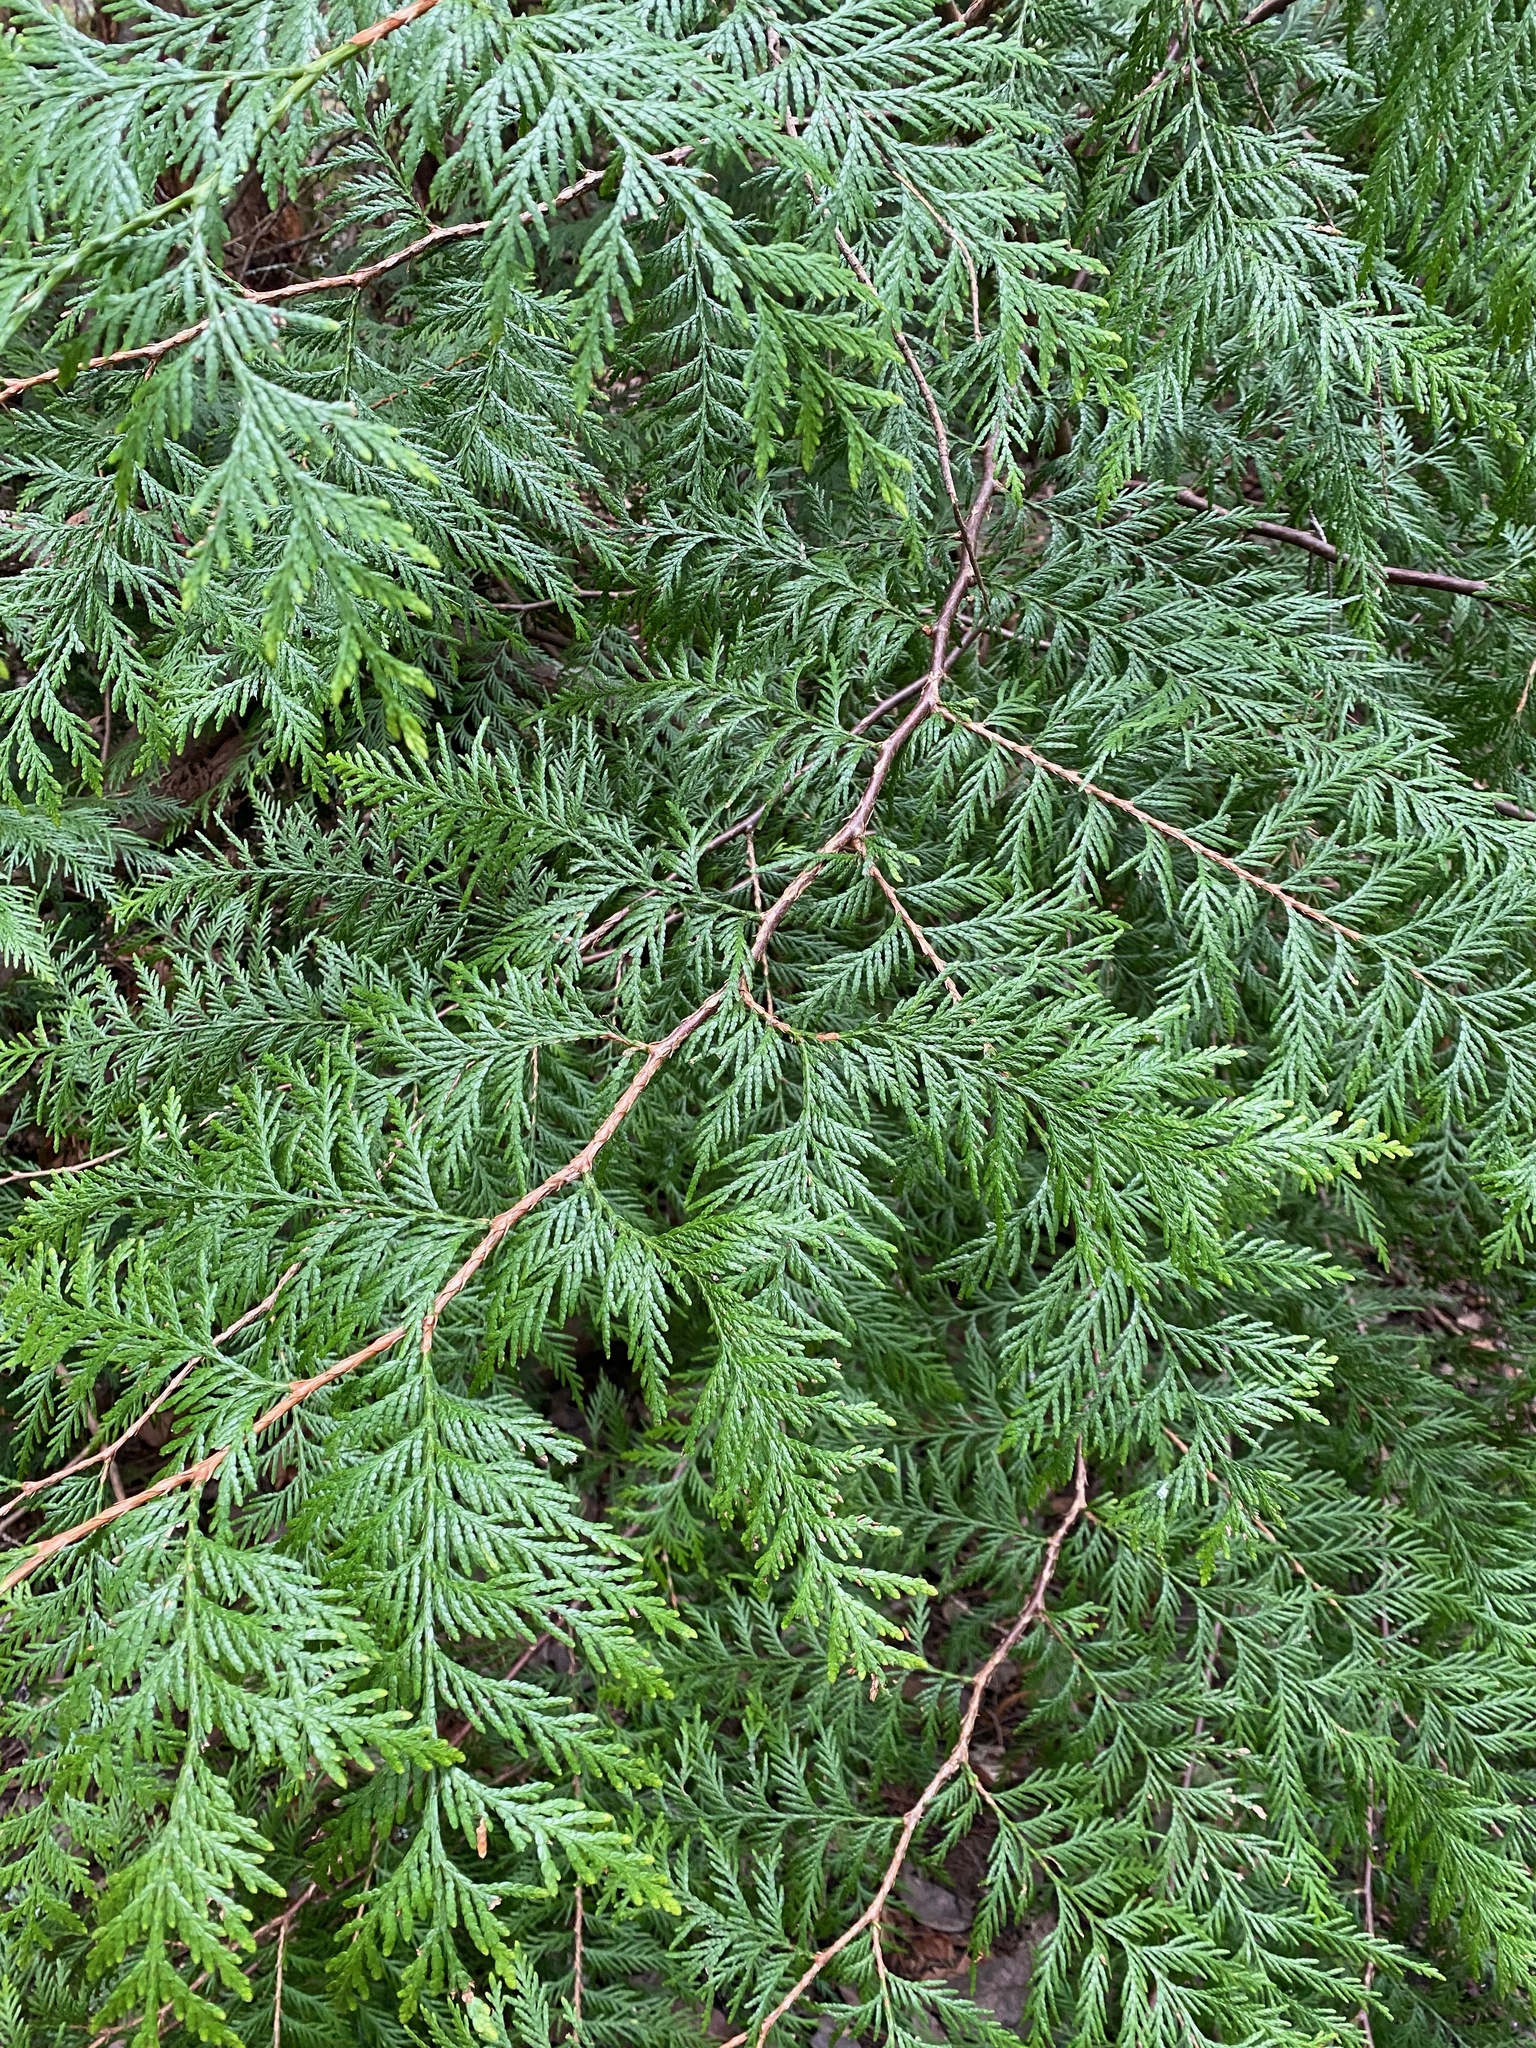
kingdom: Plantae
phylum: Tracheophyta
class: Pinopsida
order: Pinales
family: Cupressaceae
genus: Thuja
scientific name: Thuja plicata
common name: Western red-cedar
